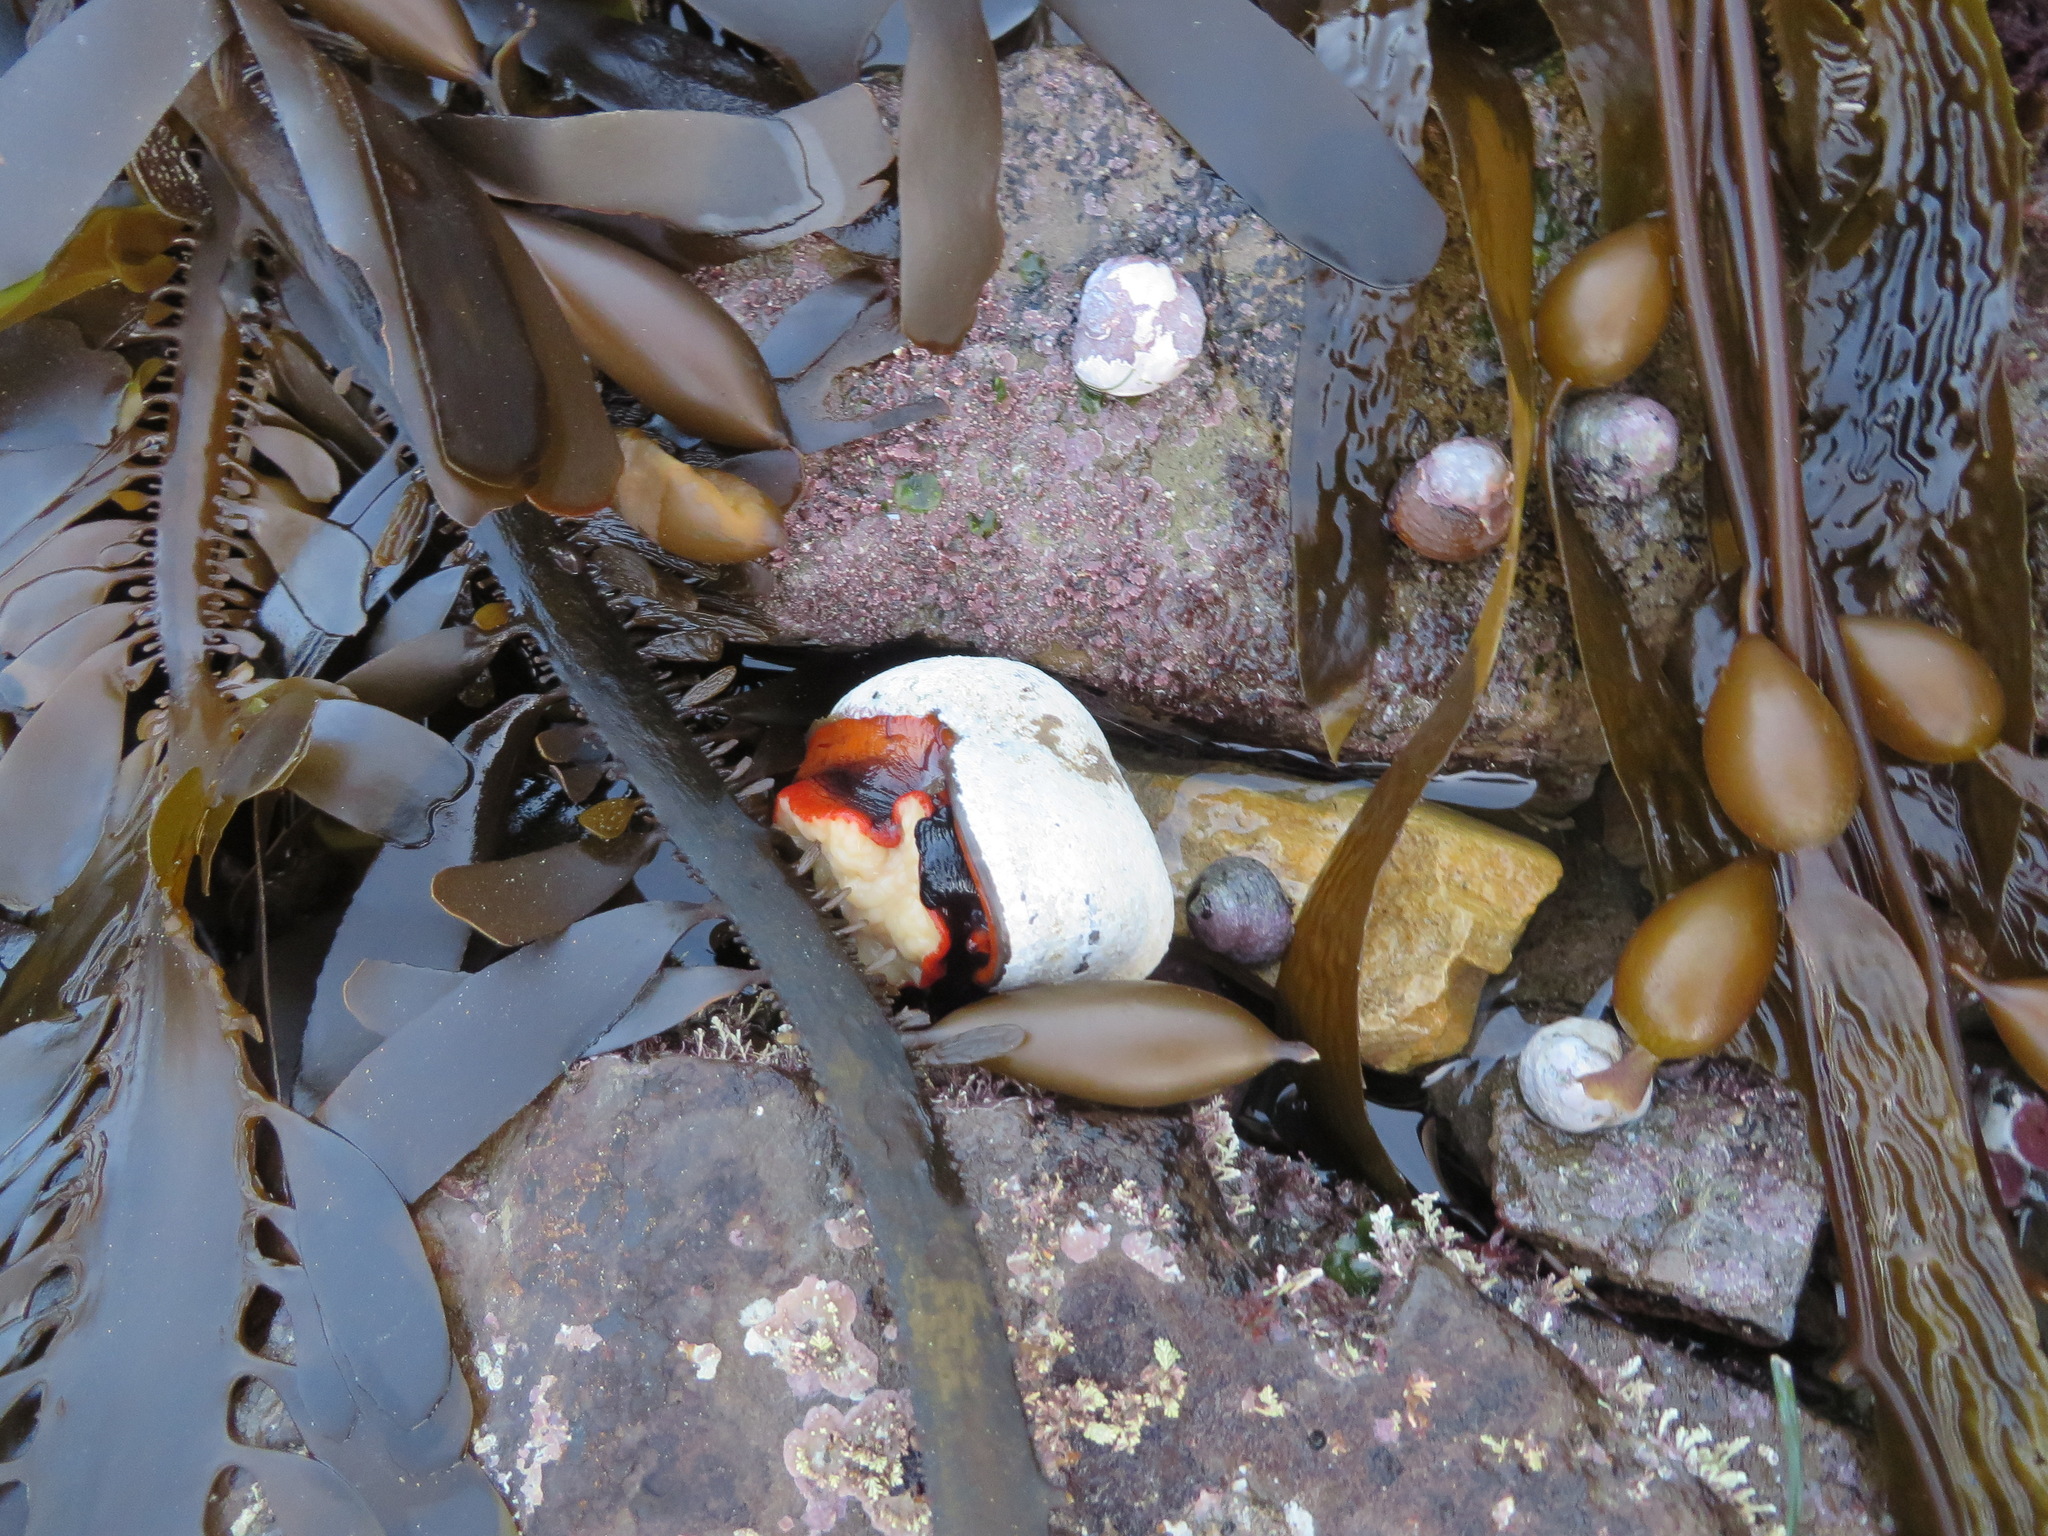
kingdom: Animalia
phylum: Mollusca
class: Gastropoda
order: Trochida
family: Tegulidae
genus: Norrisia
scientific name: Norrisia norrisii
